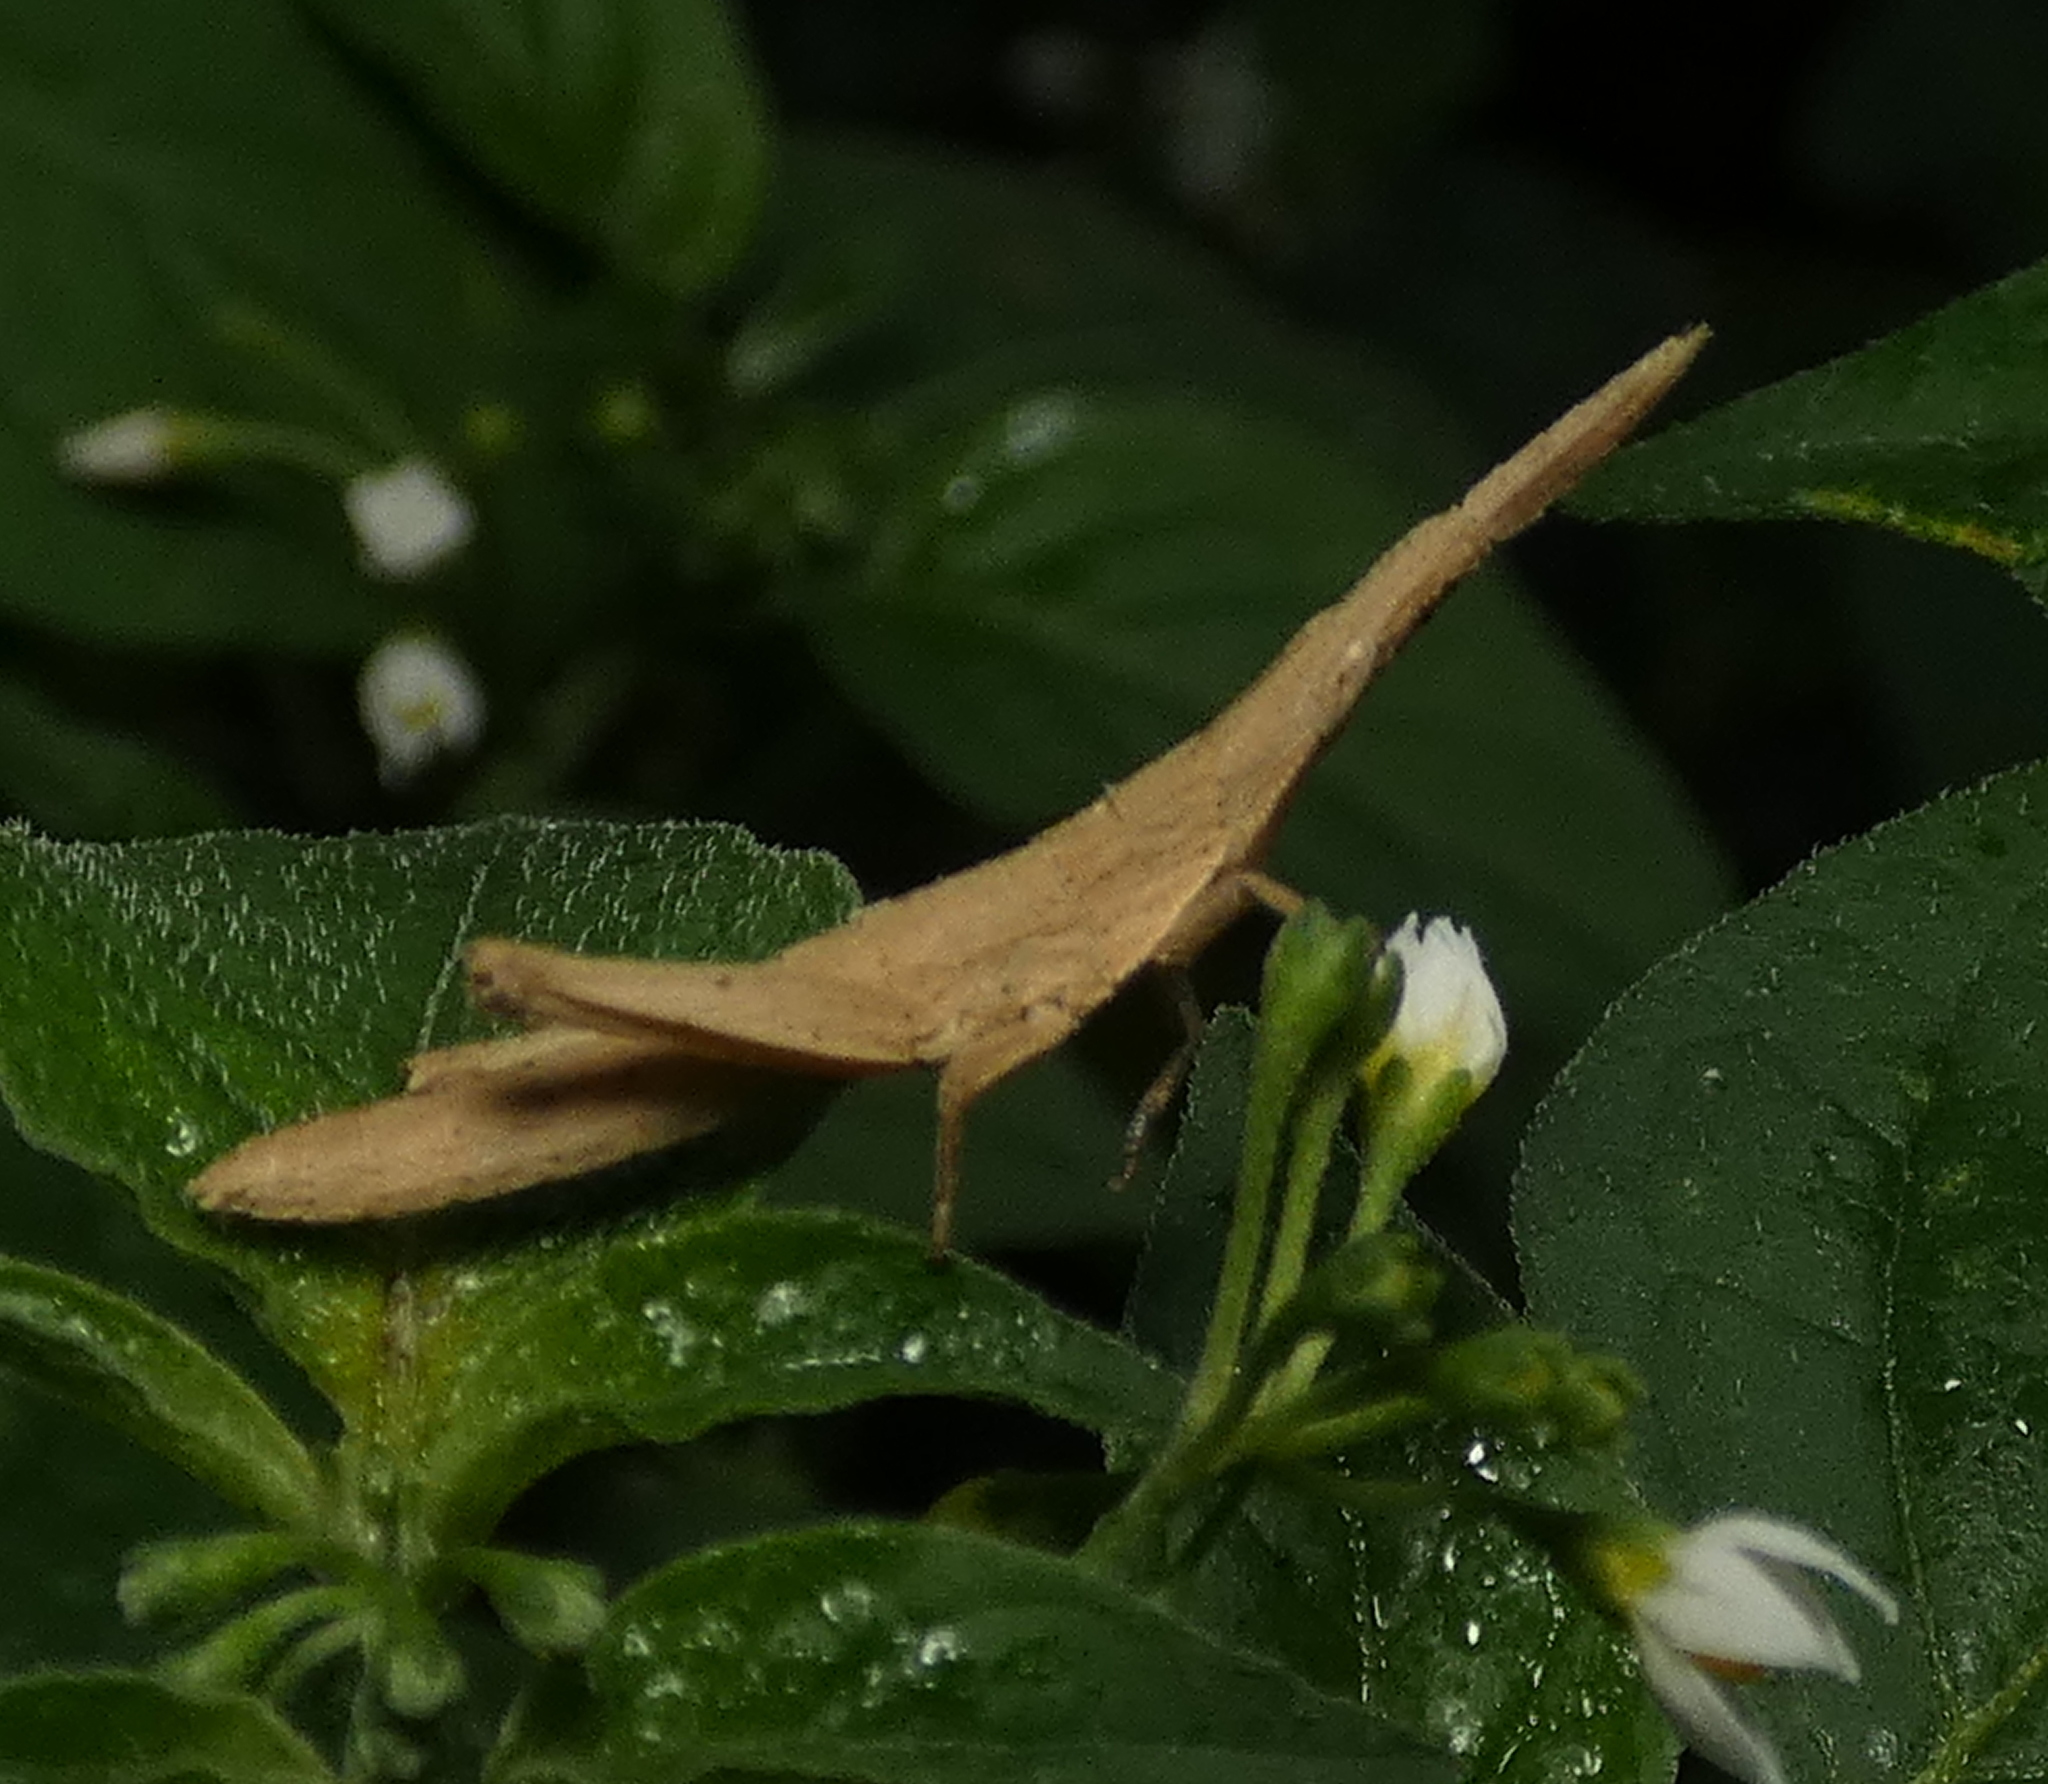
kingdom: Animalia
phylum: Arthropoda
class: Insecta
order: Orthoptera
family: Pyrgomorphidae
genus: Algete
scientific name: Algete brunneri
